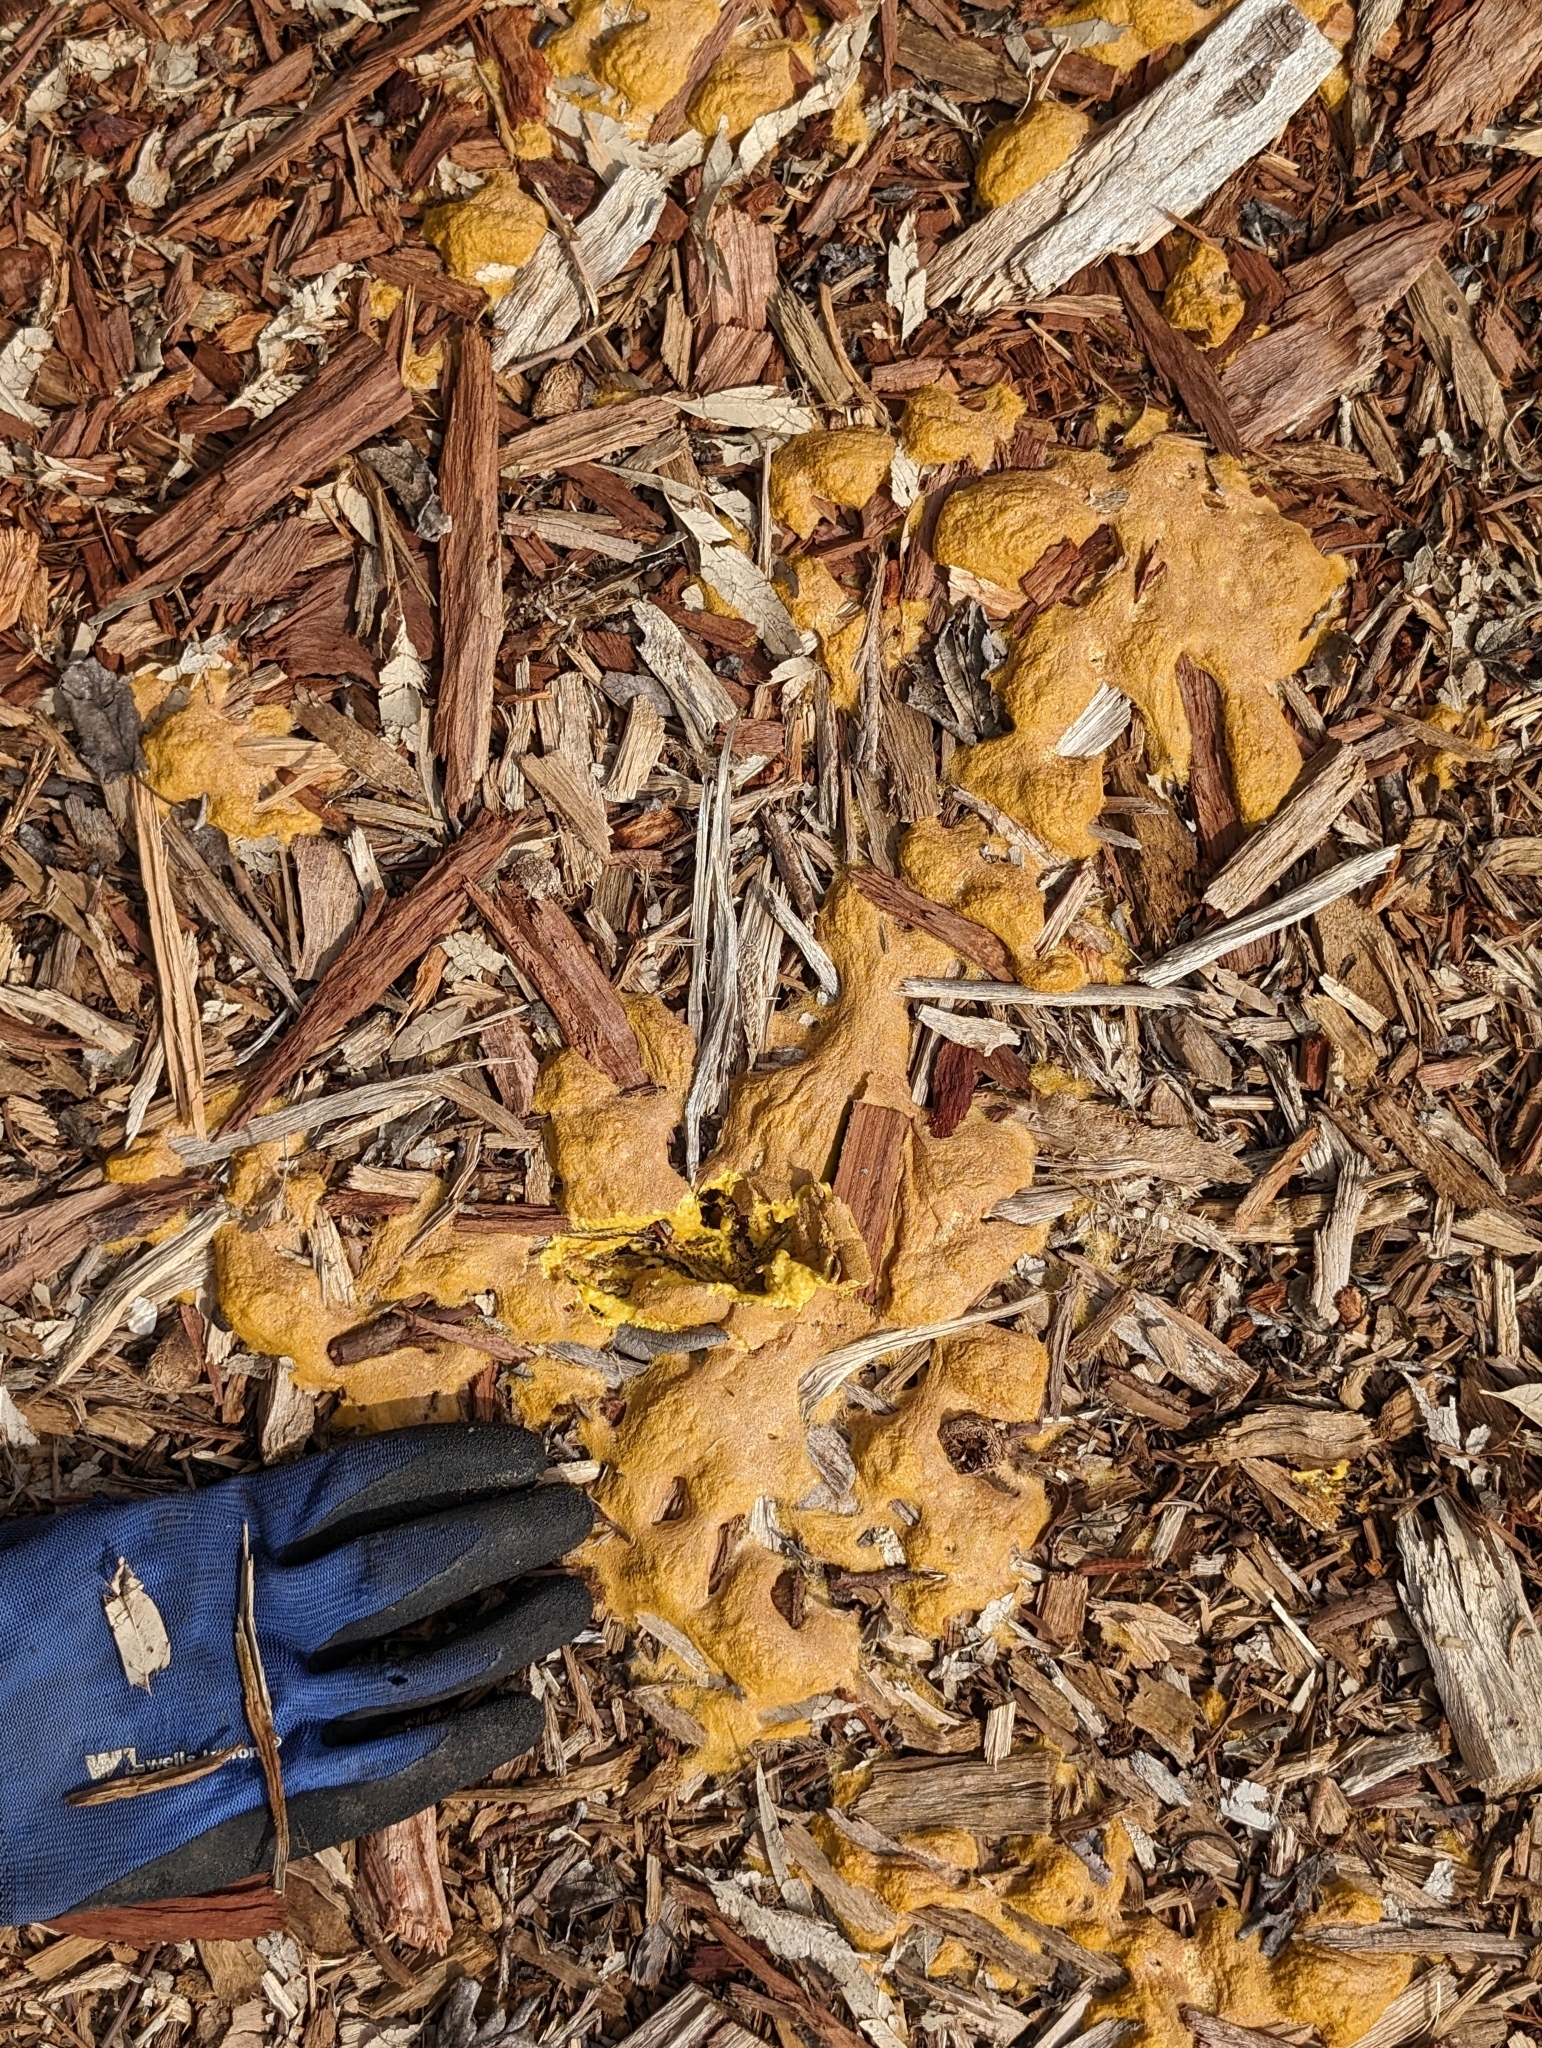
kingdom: Protozoa
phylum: Mycetozoa
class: Myxomycetes
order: Physarales
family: Physaraceae
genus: Fuligo
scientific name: Fuligo septica
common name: Dog vomit slime mold
